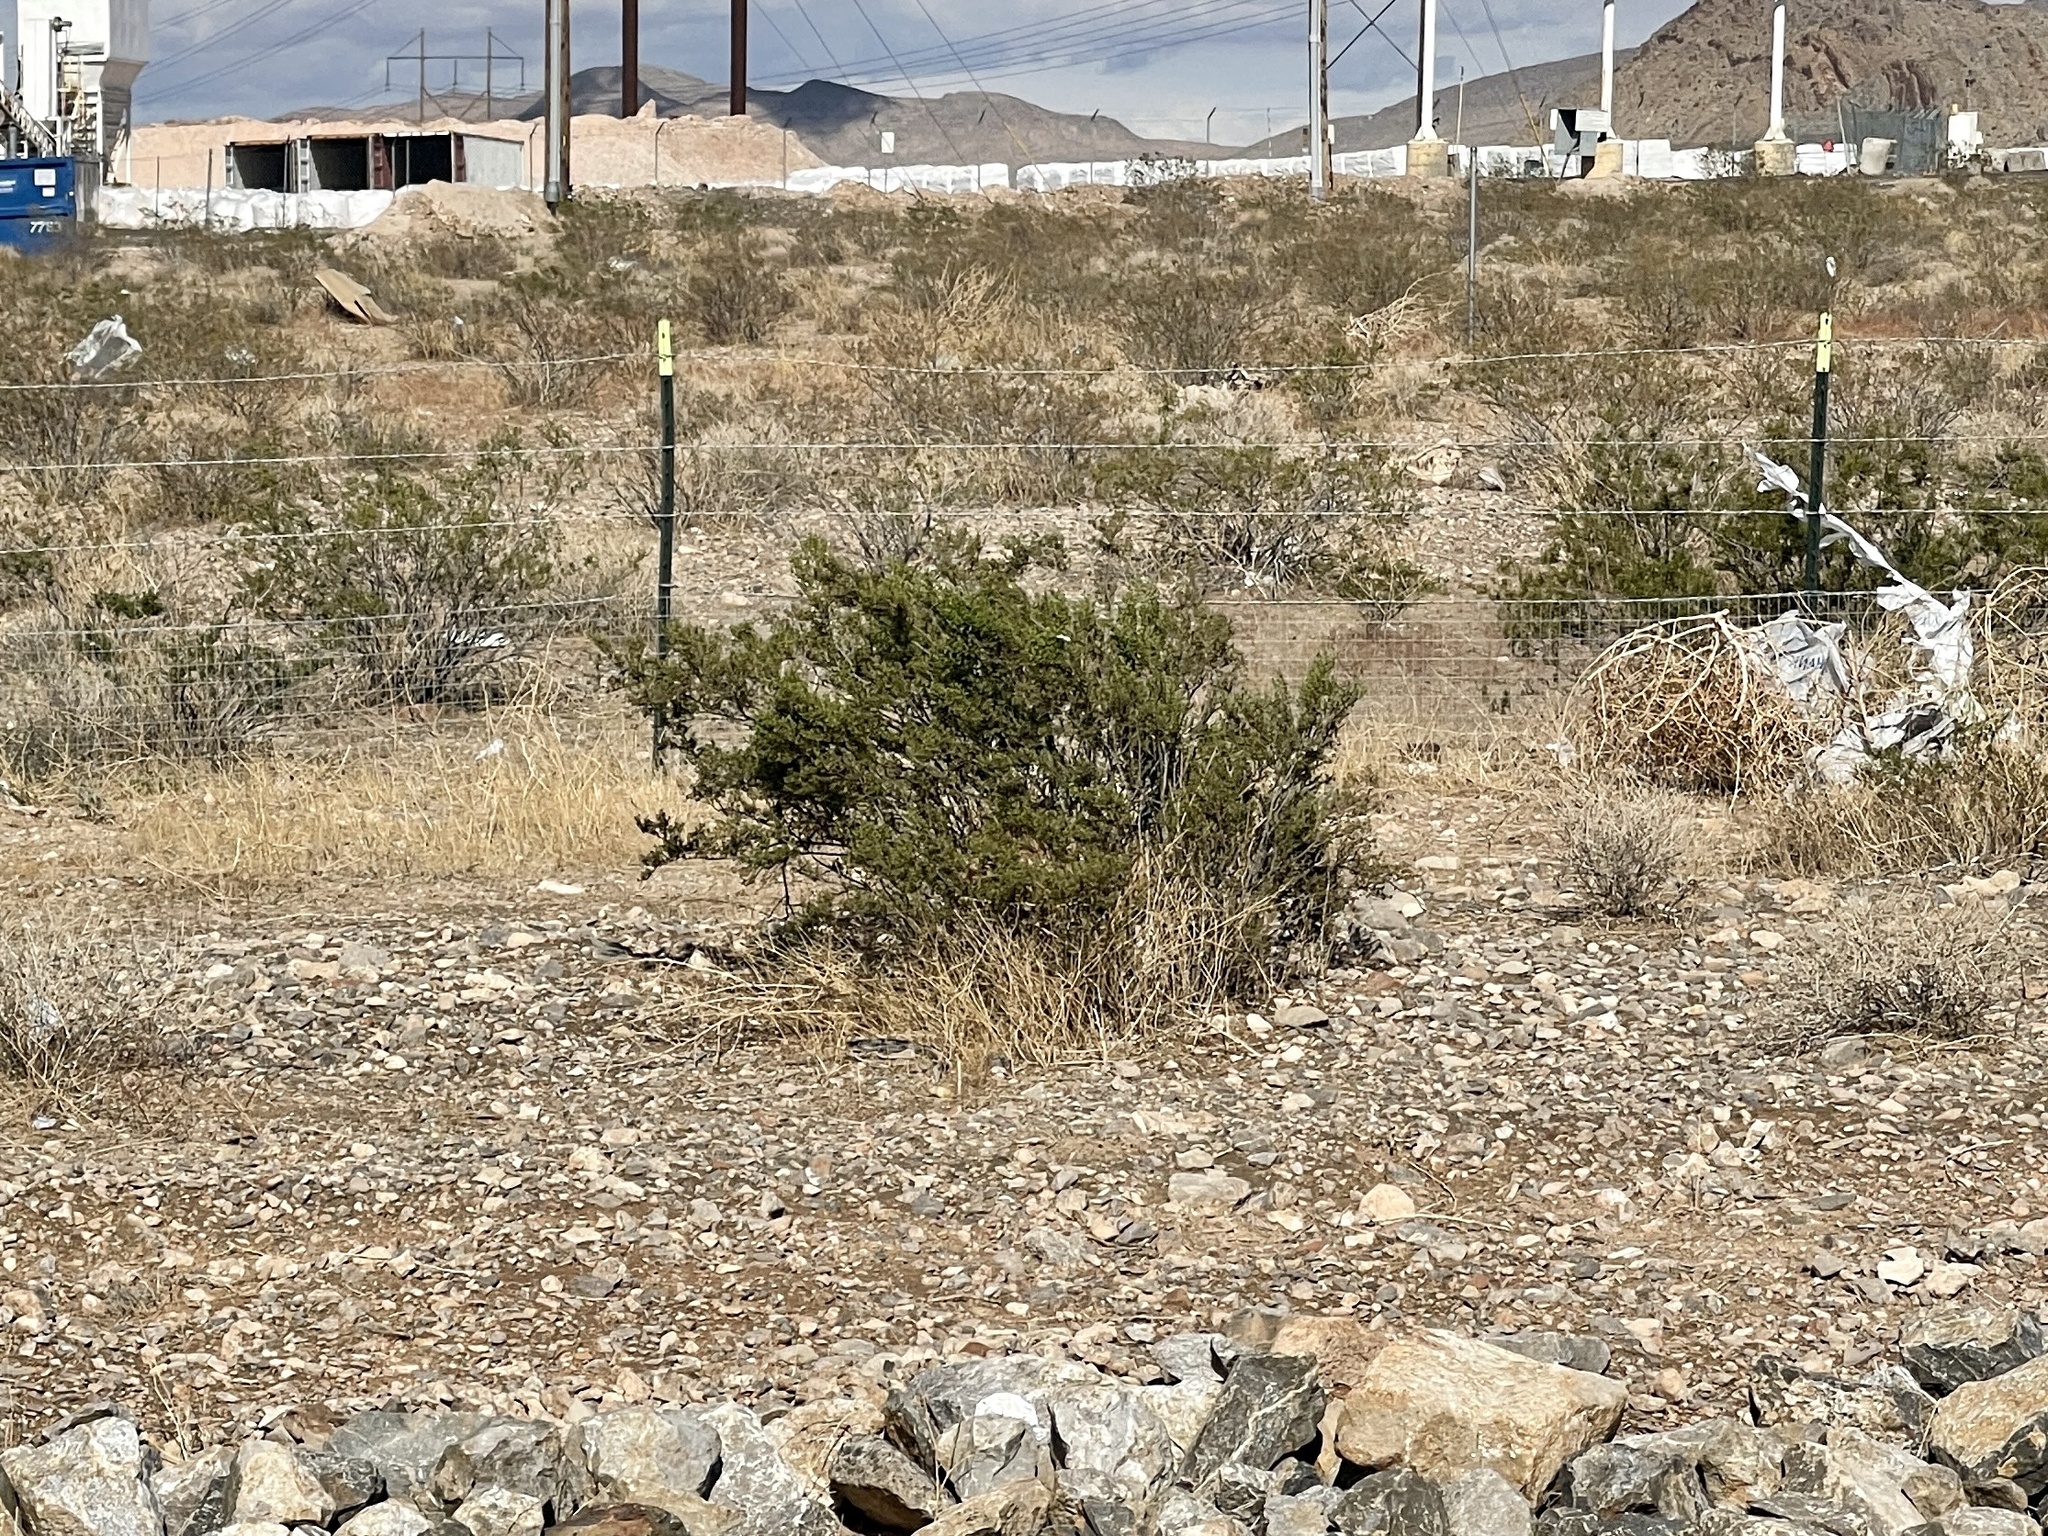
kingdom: Plantae
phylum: Tracheophyta
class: Magnoliopsida
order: Zygophyllales
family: Zygophyllaceae
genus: Larrea
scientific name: Larrea tridentata
